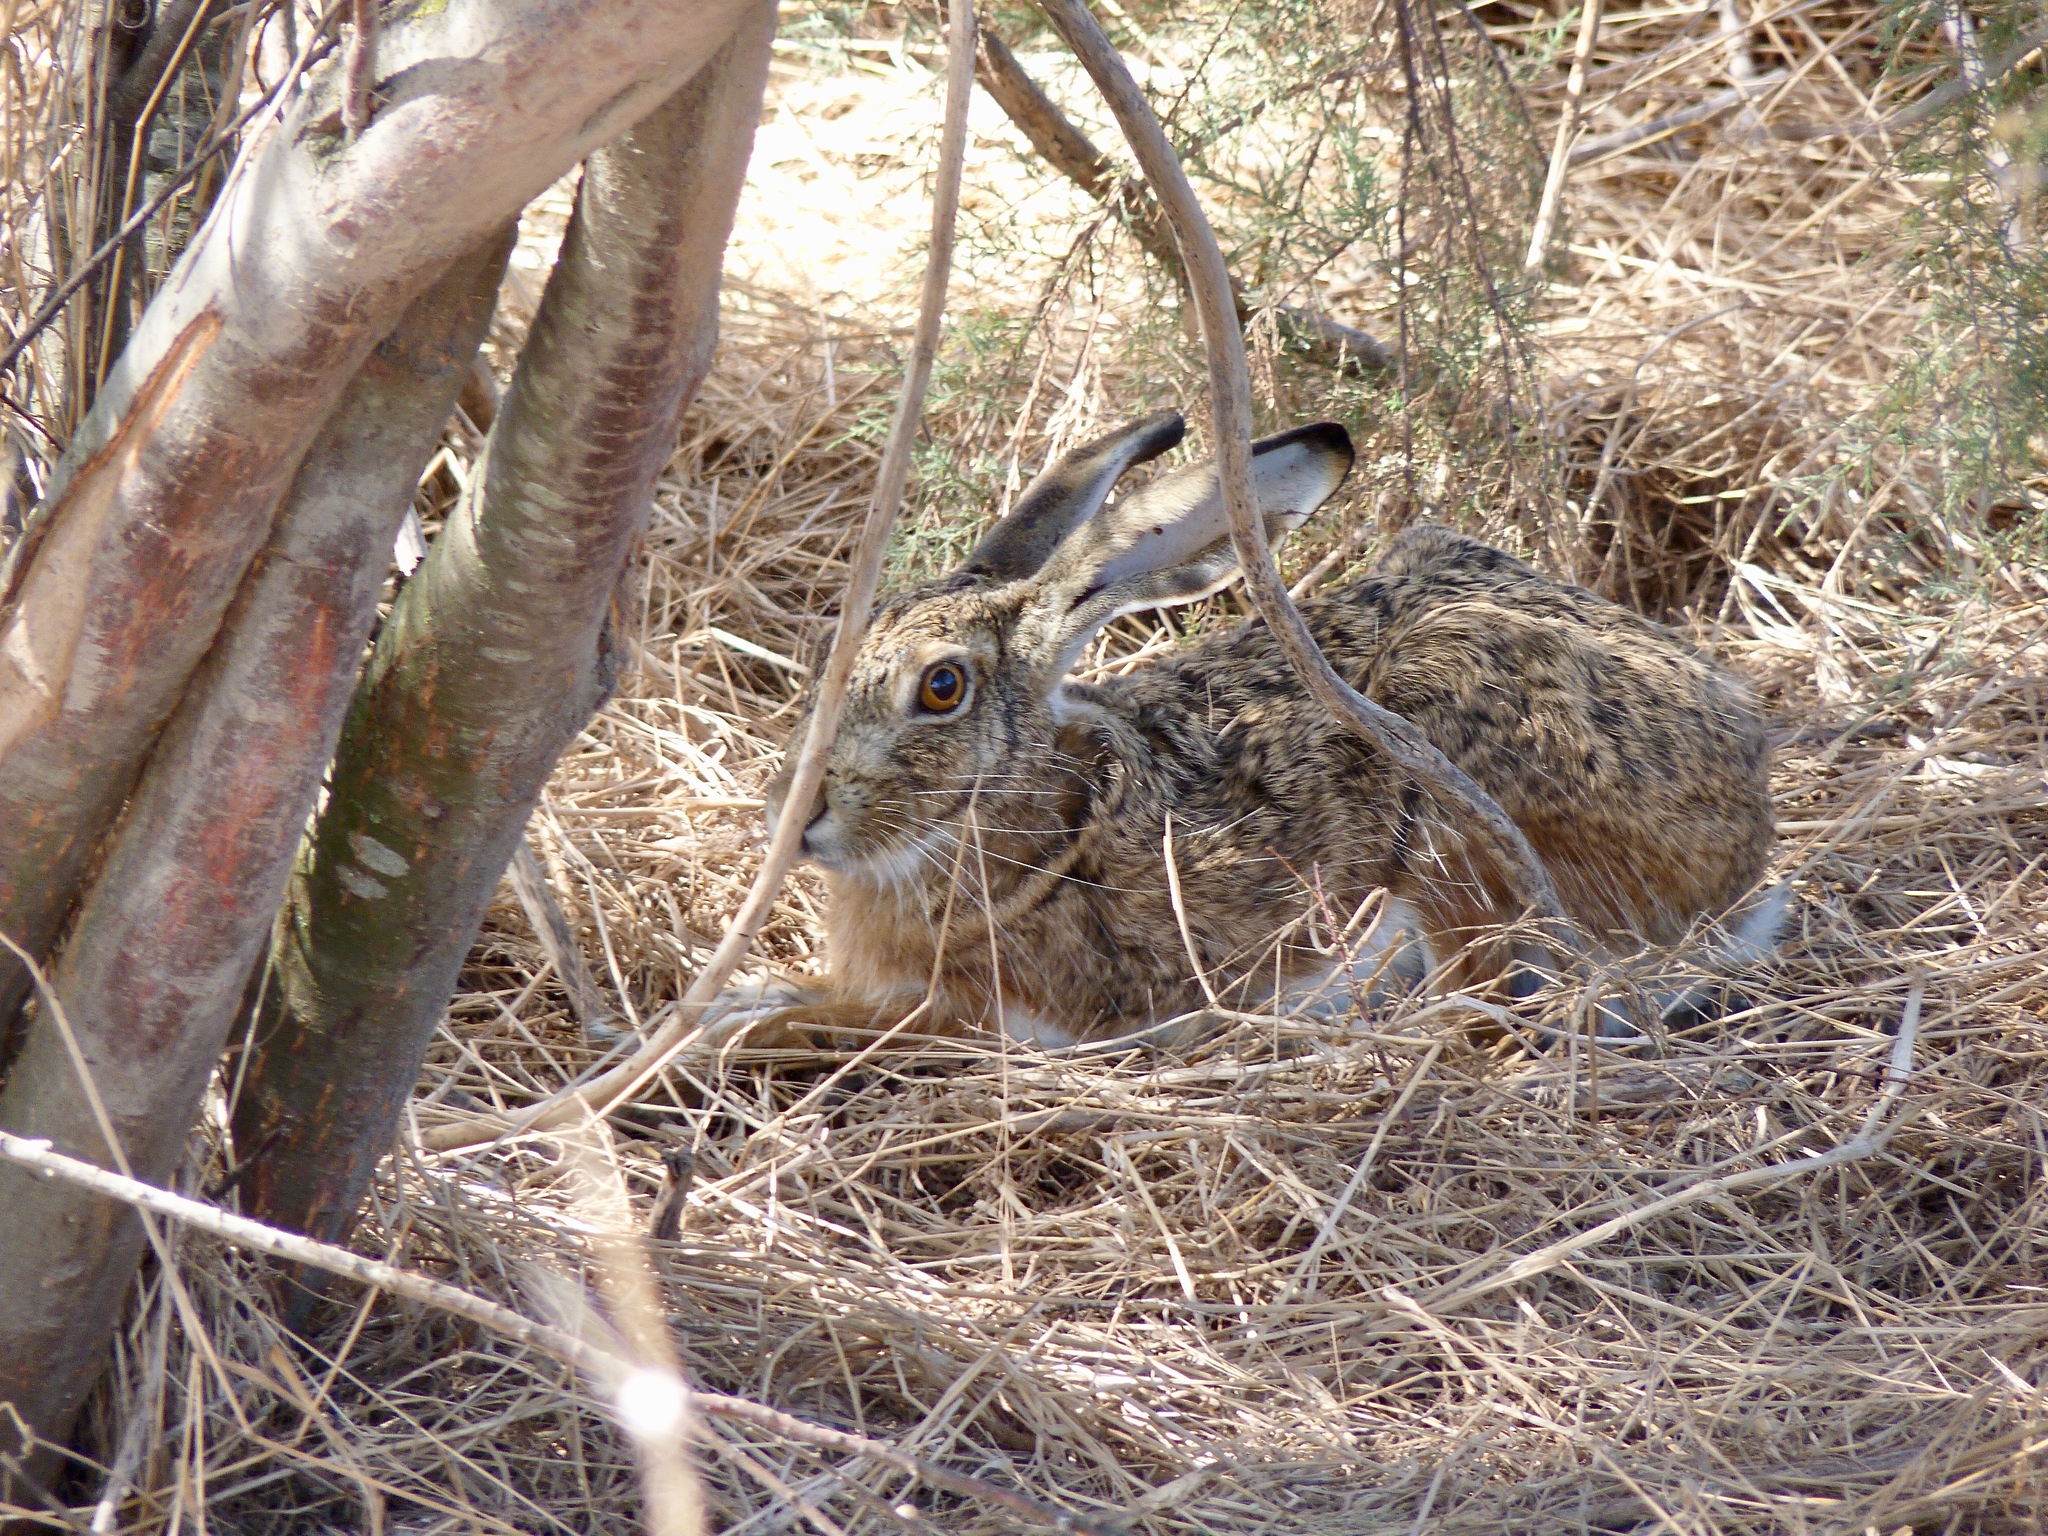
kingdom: Animalia
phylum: Chordata
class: Mammalia
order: Lagomorpha
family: Leporidae
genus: Lepus
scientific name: Lepus granatensis
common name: Granada hare
